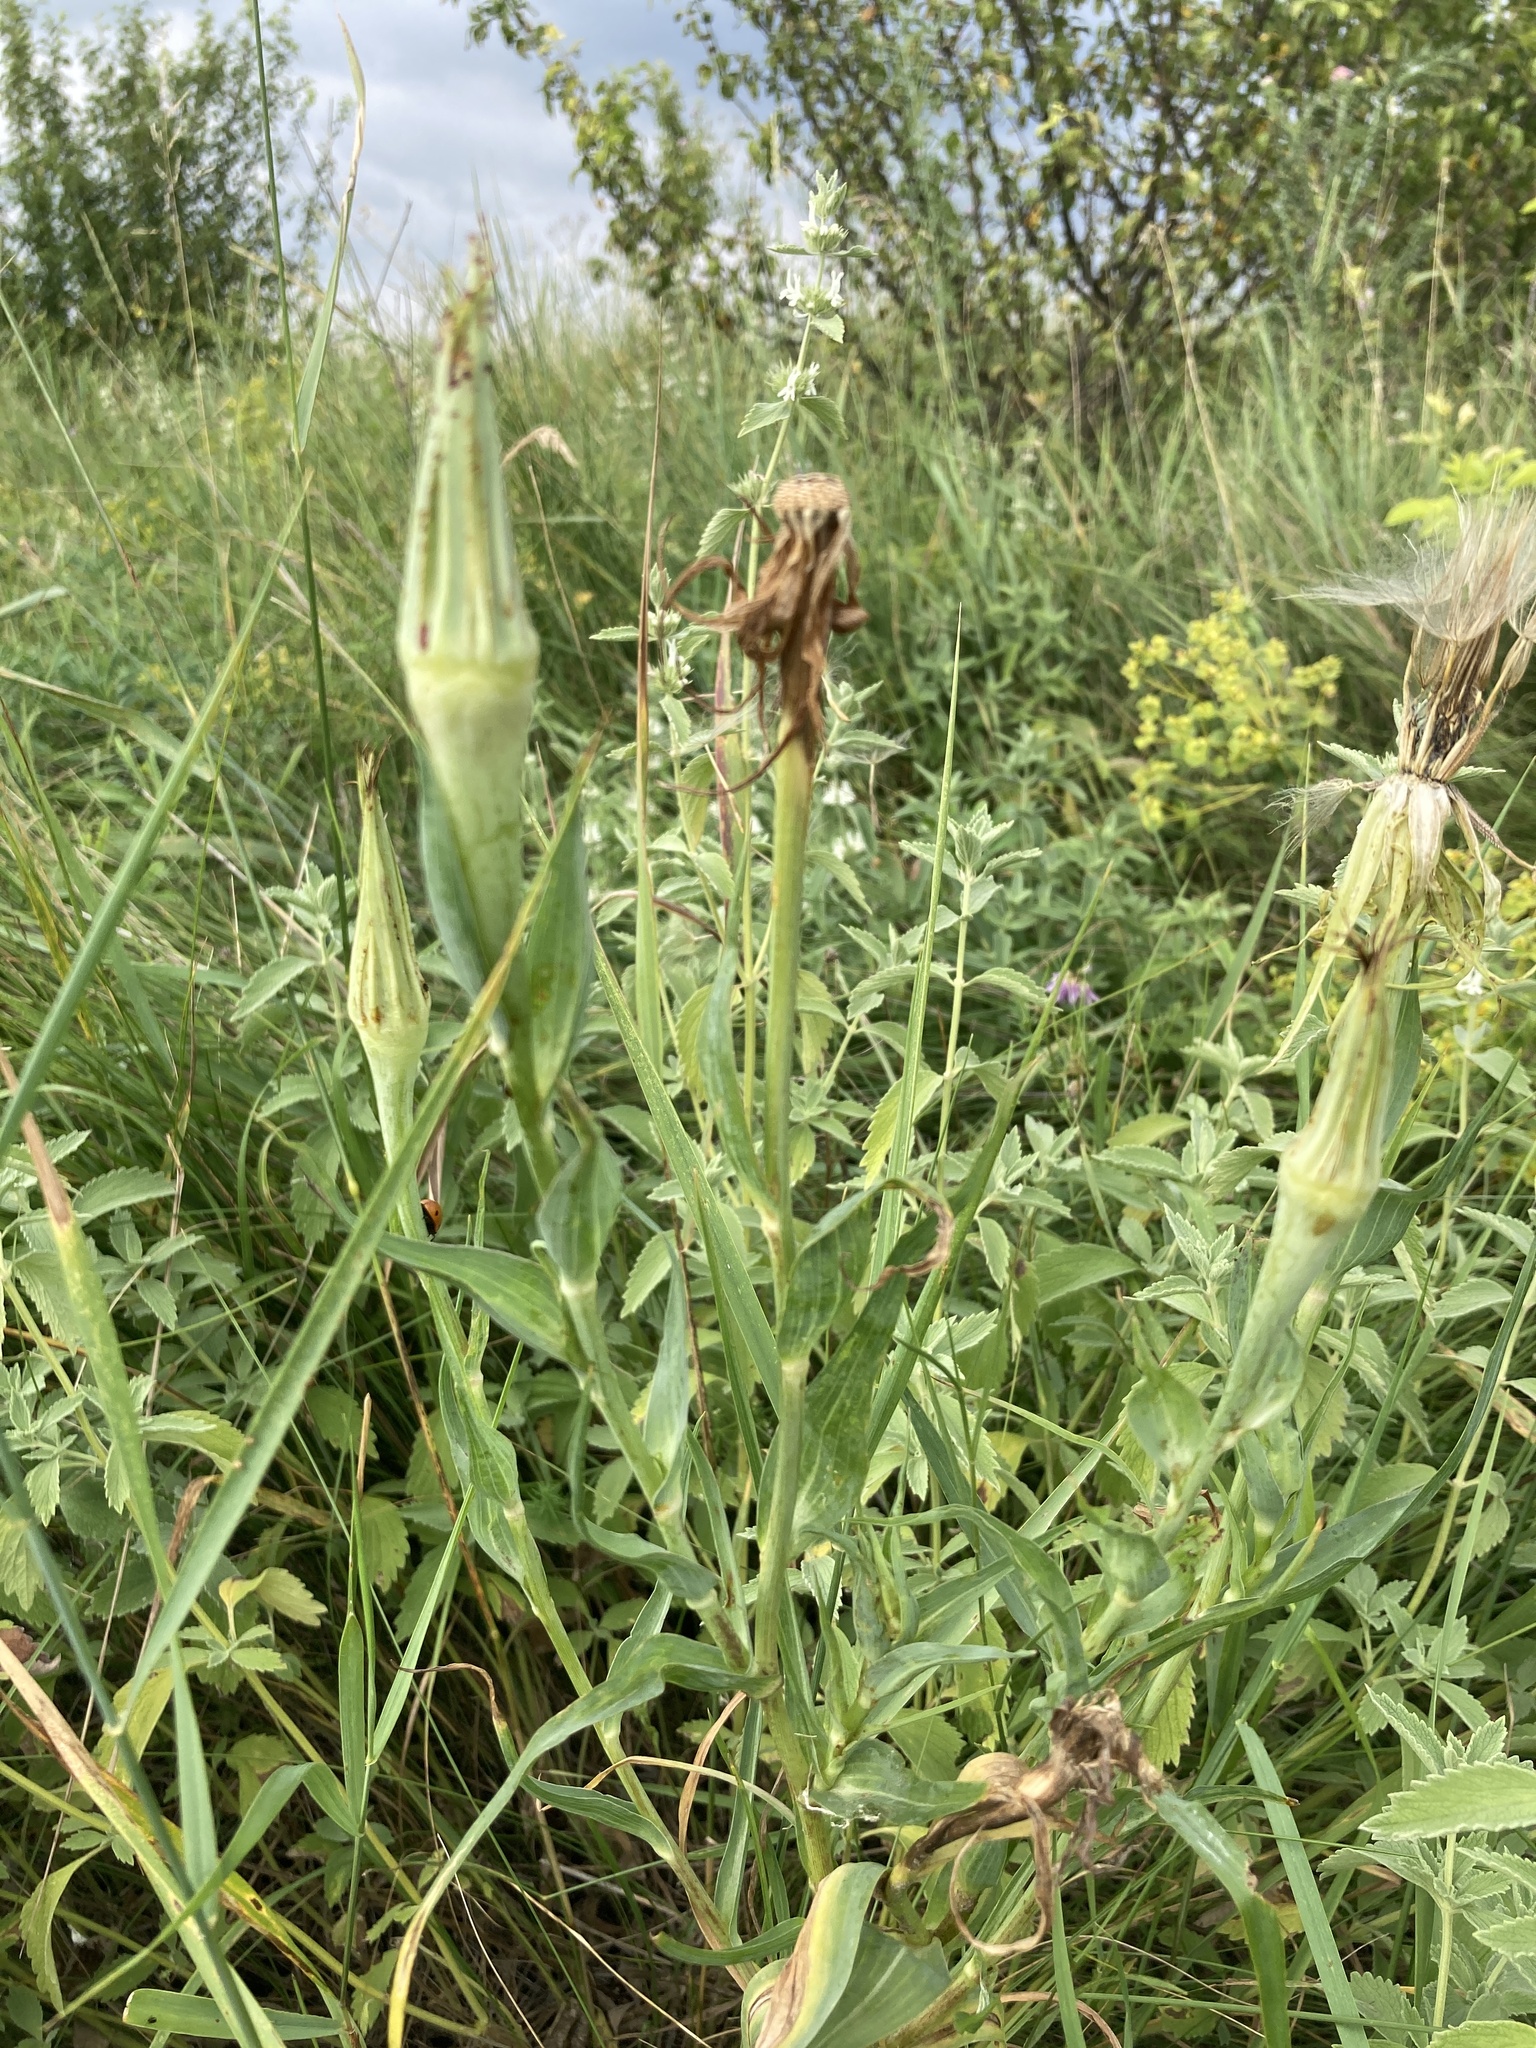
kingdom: Plantae
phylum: Tracheophyta
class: Magnoliopsida
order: Asterales
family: Asteraceae
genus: Tragopogon
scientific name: Tragopogon dubius
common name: Yellow salsify
